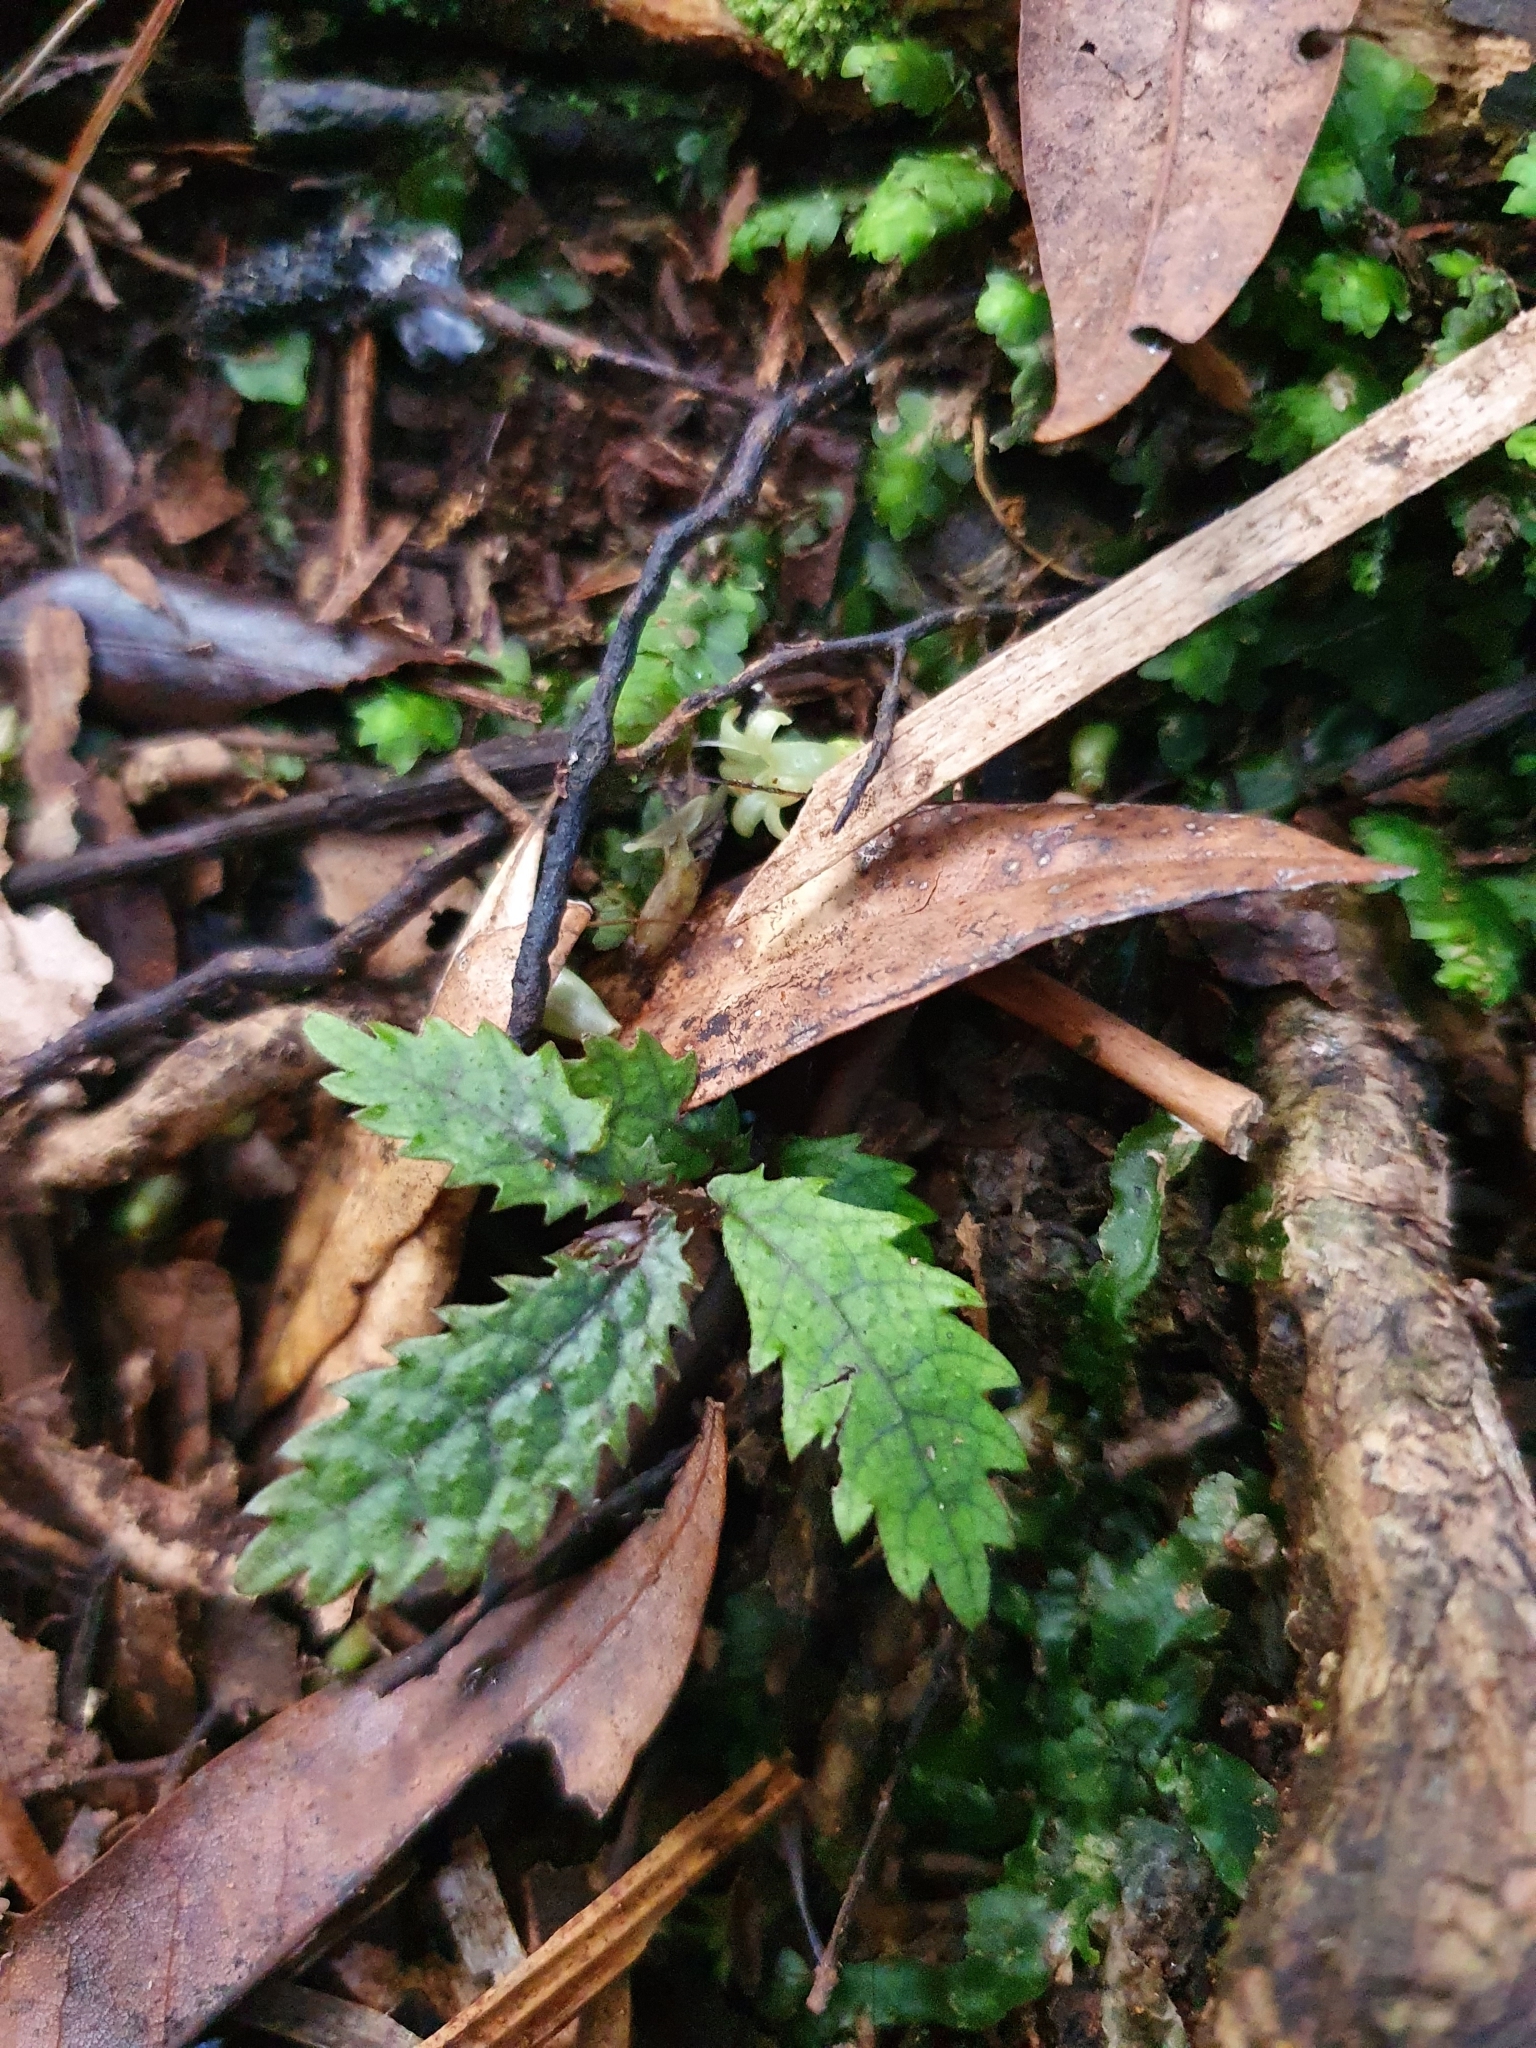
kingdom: Plantae
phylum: Tracheophyta
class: Magnoliopsida
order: Rosales
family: Urticaceae
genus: Elatostema
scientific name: Elatostema rugosum
